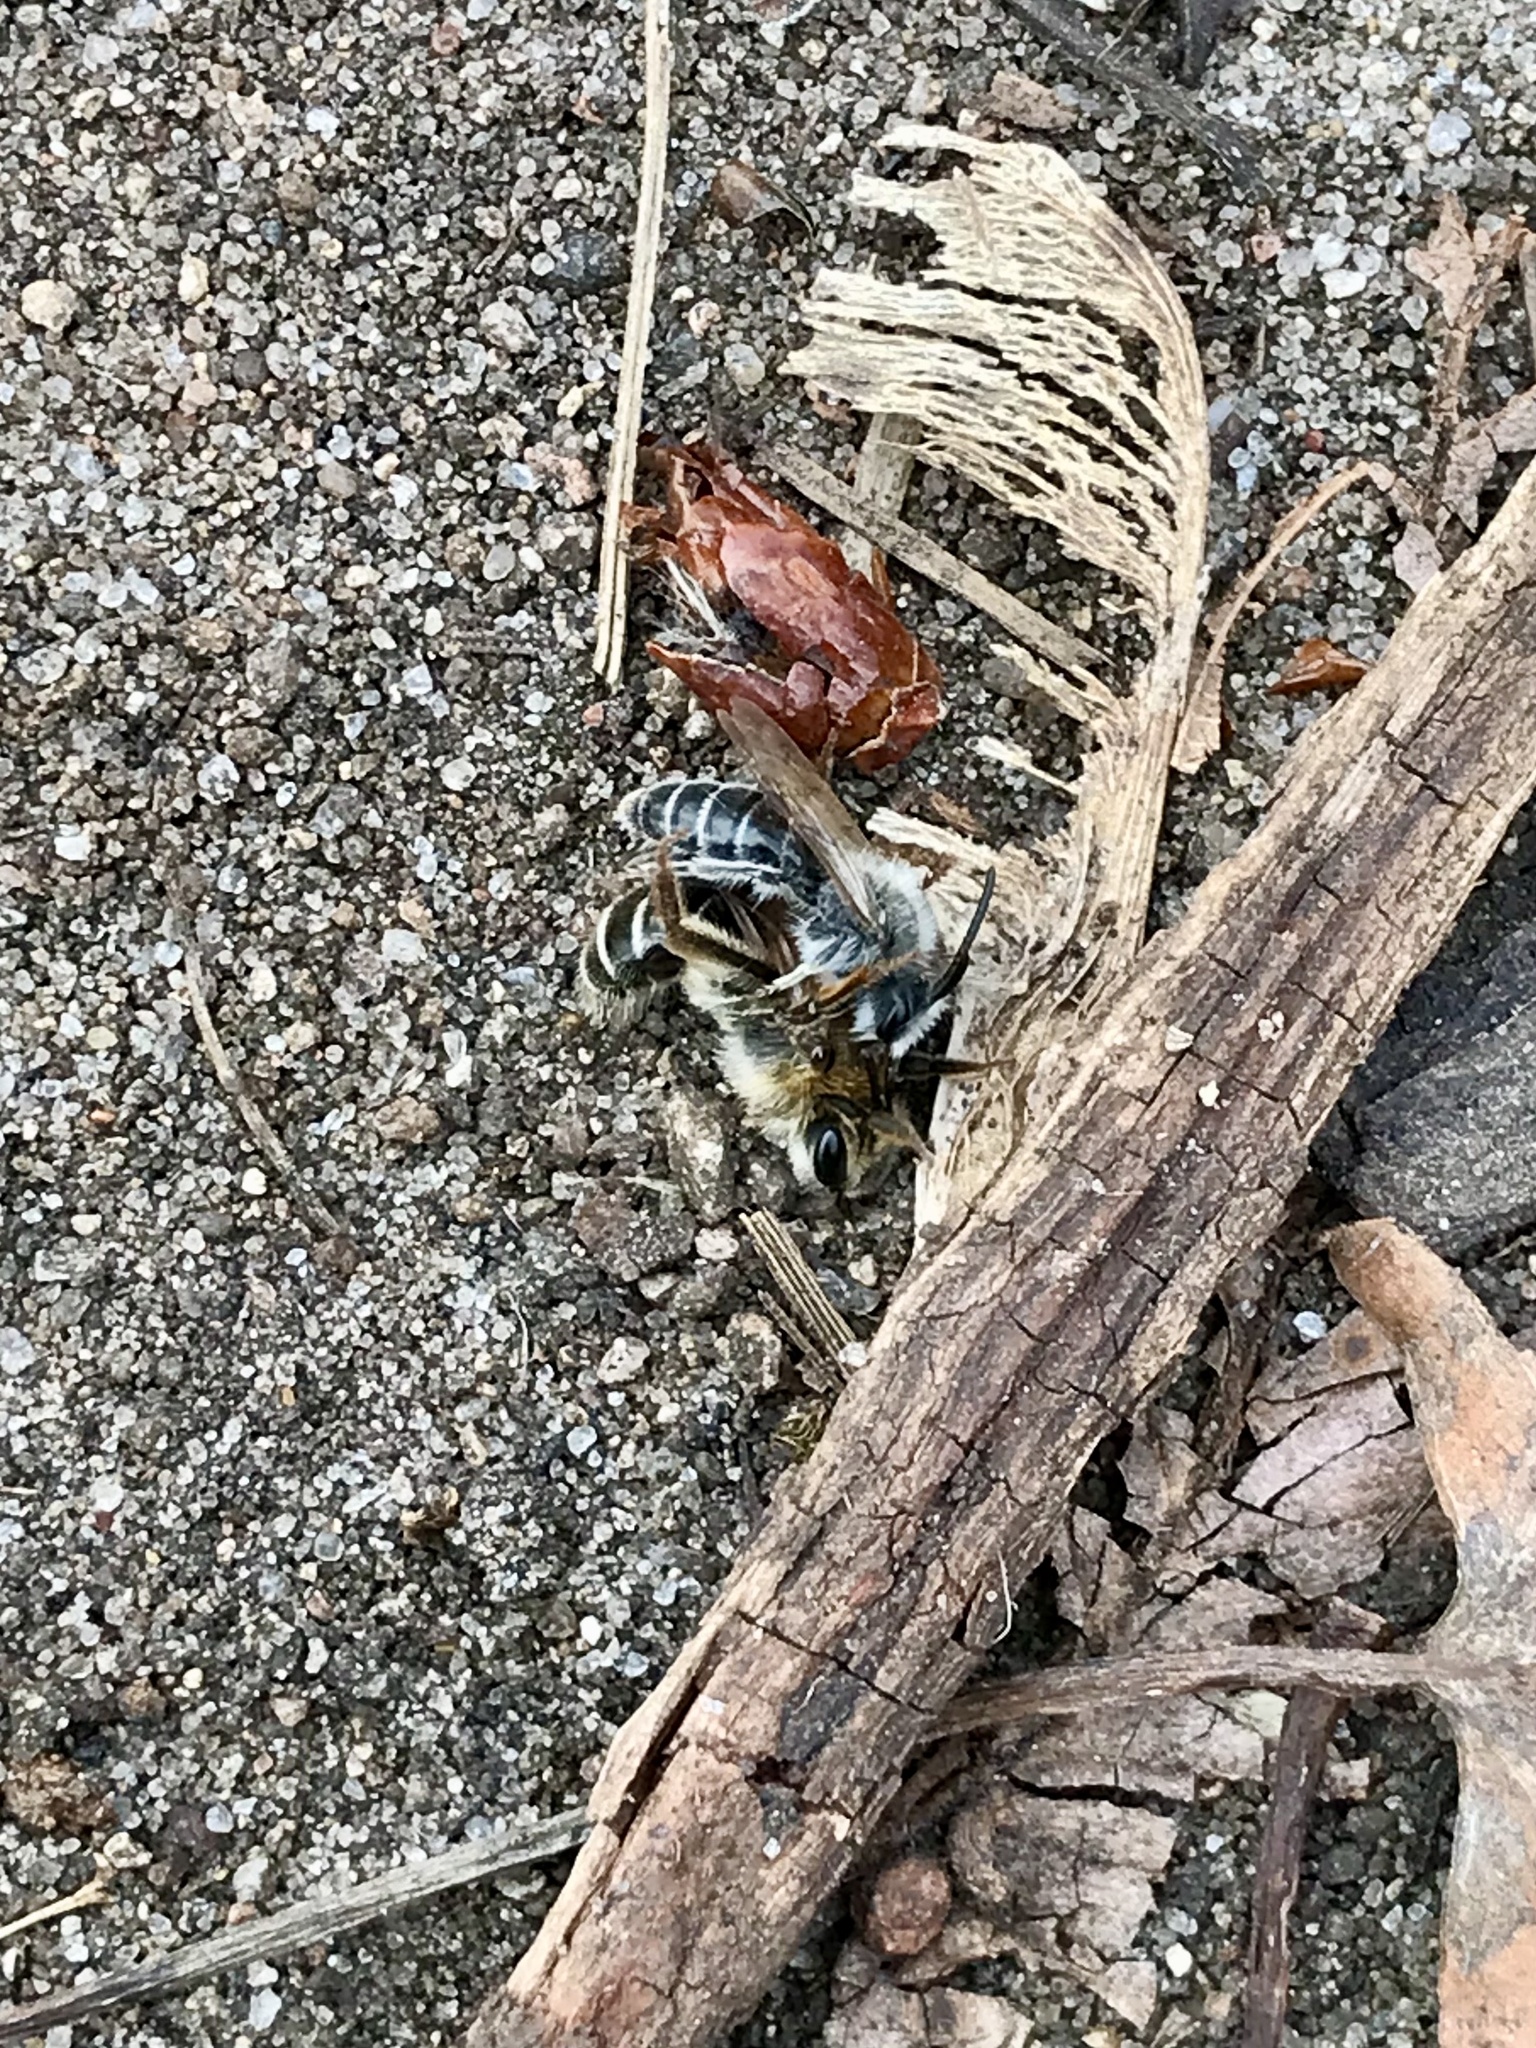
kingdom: Animalia
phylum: Arthropoda
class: Insecta
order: Hymenoptera
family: Colletidae
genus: Colletes
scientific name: Colletes inaequalis
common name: Unequal cellophane bee
